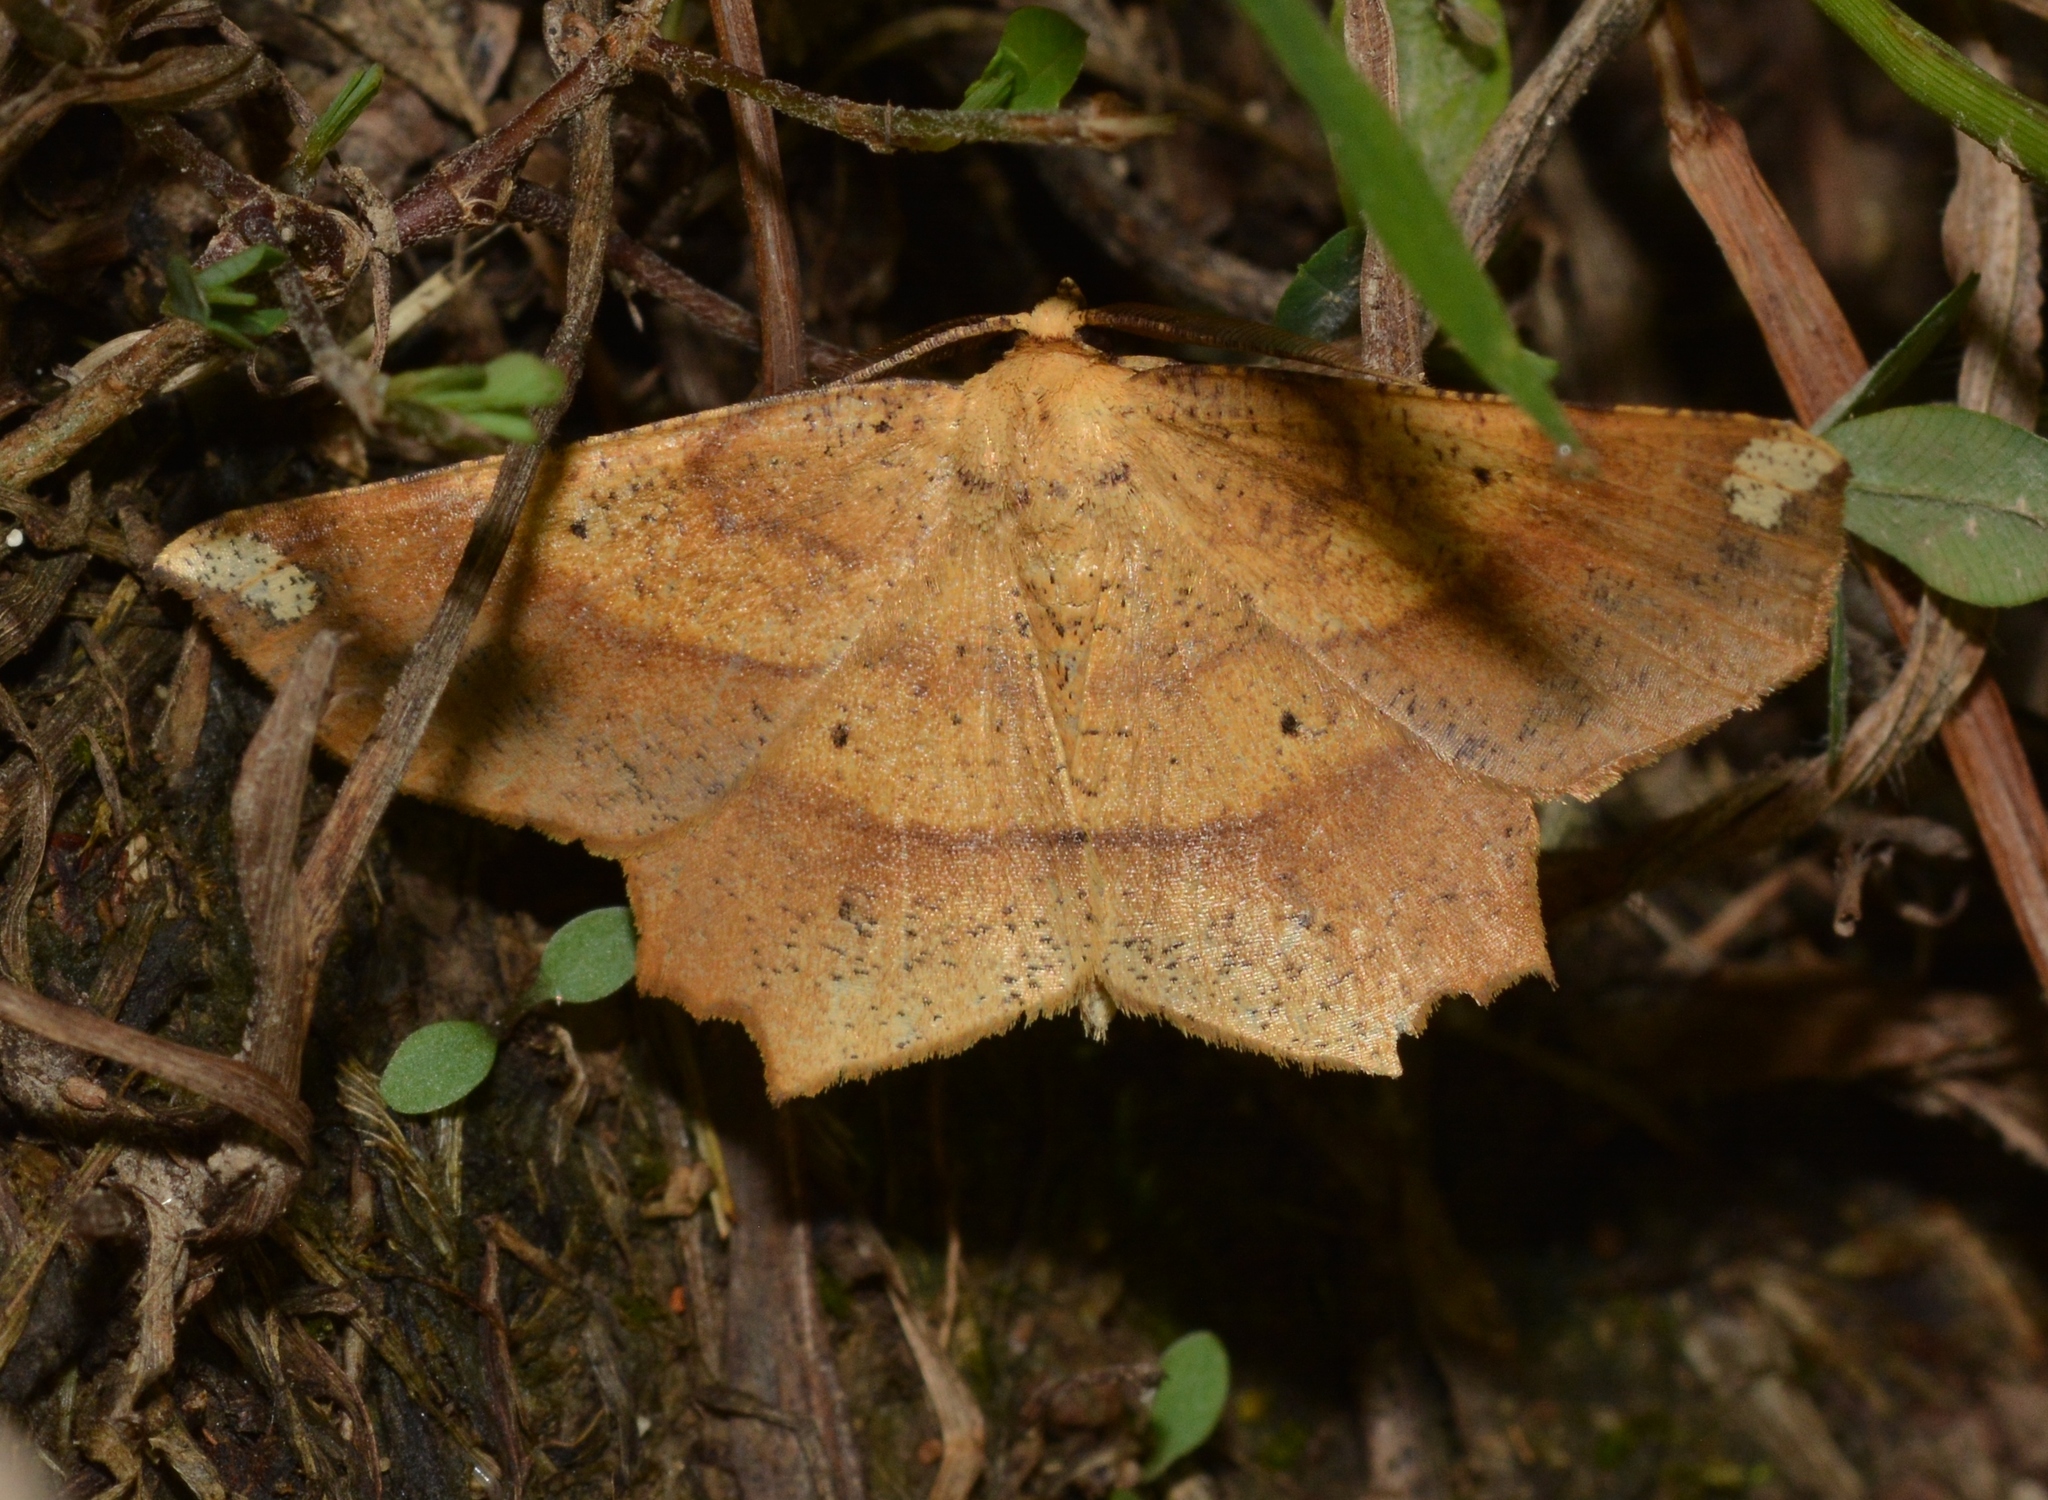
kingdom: Animalia
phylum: Arthropoda
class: Insecta
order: Lepidoptera
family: Geometridae
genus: Euchlaena
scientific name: Euchlaena amoenaria
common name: Deep yellow euchlaena
